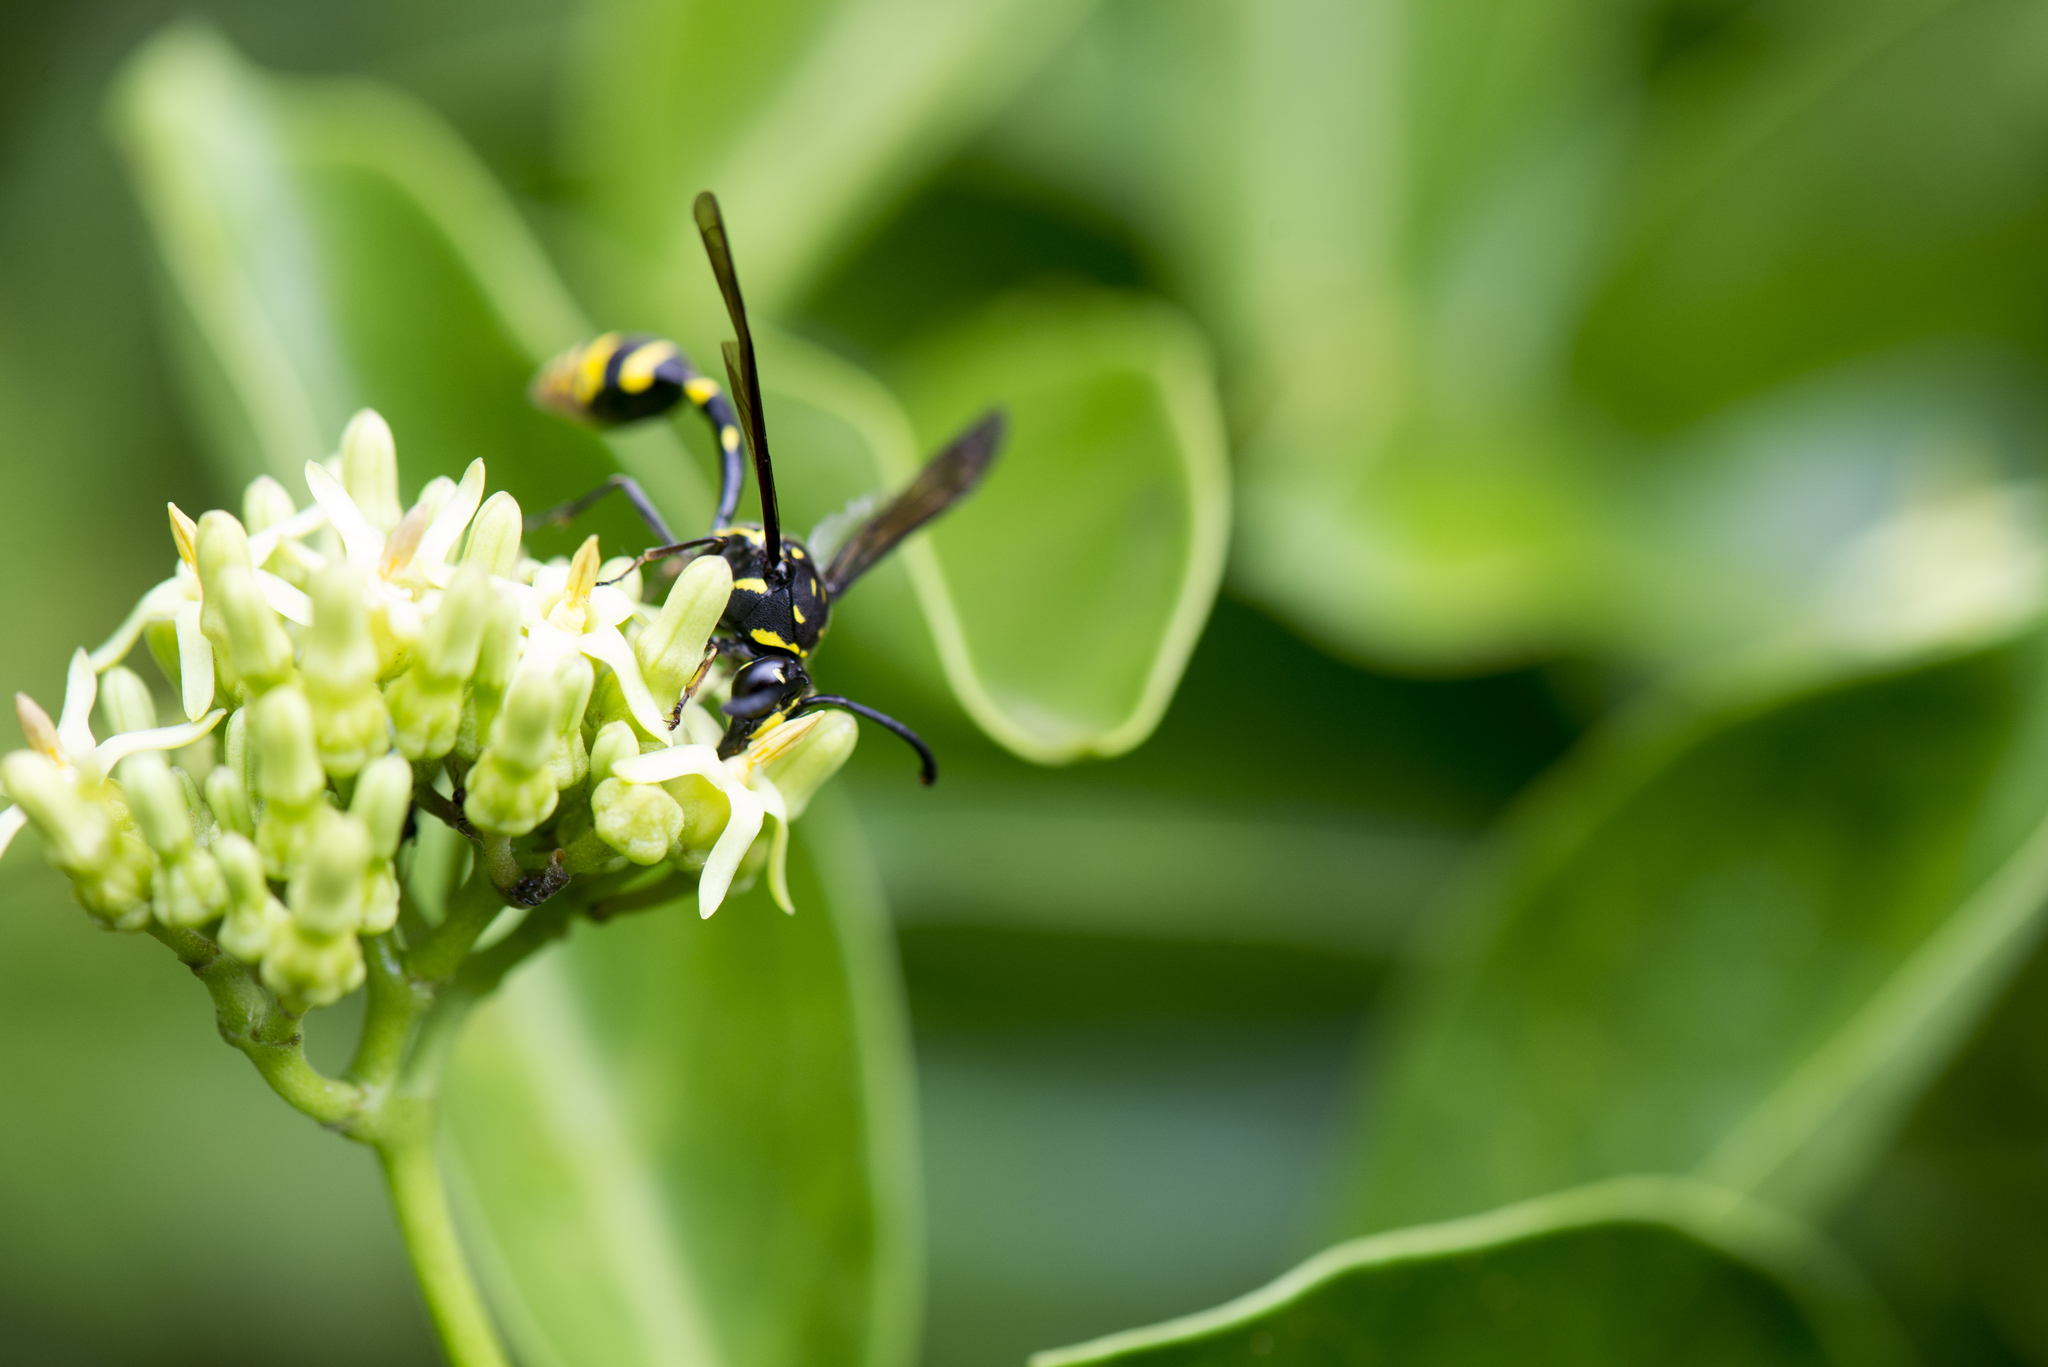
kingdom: Animalia
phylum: Arthropoda
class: Insecta
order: Hymenoptera
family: Eumenidae
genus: Phimenes
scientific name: Phimenes flavopictus
